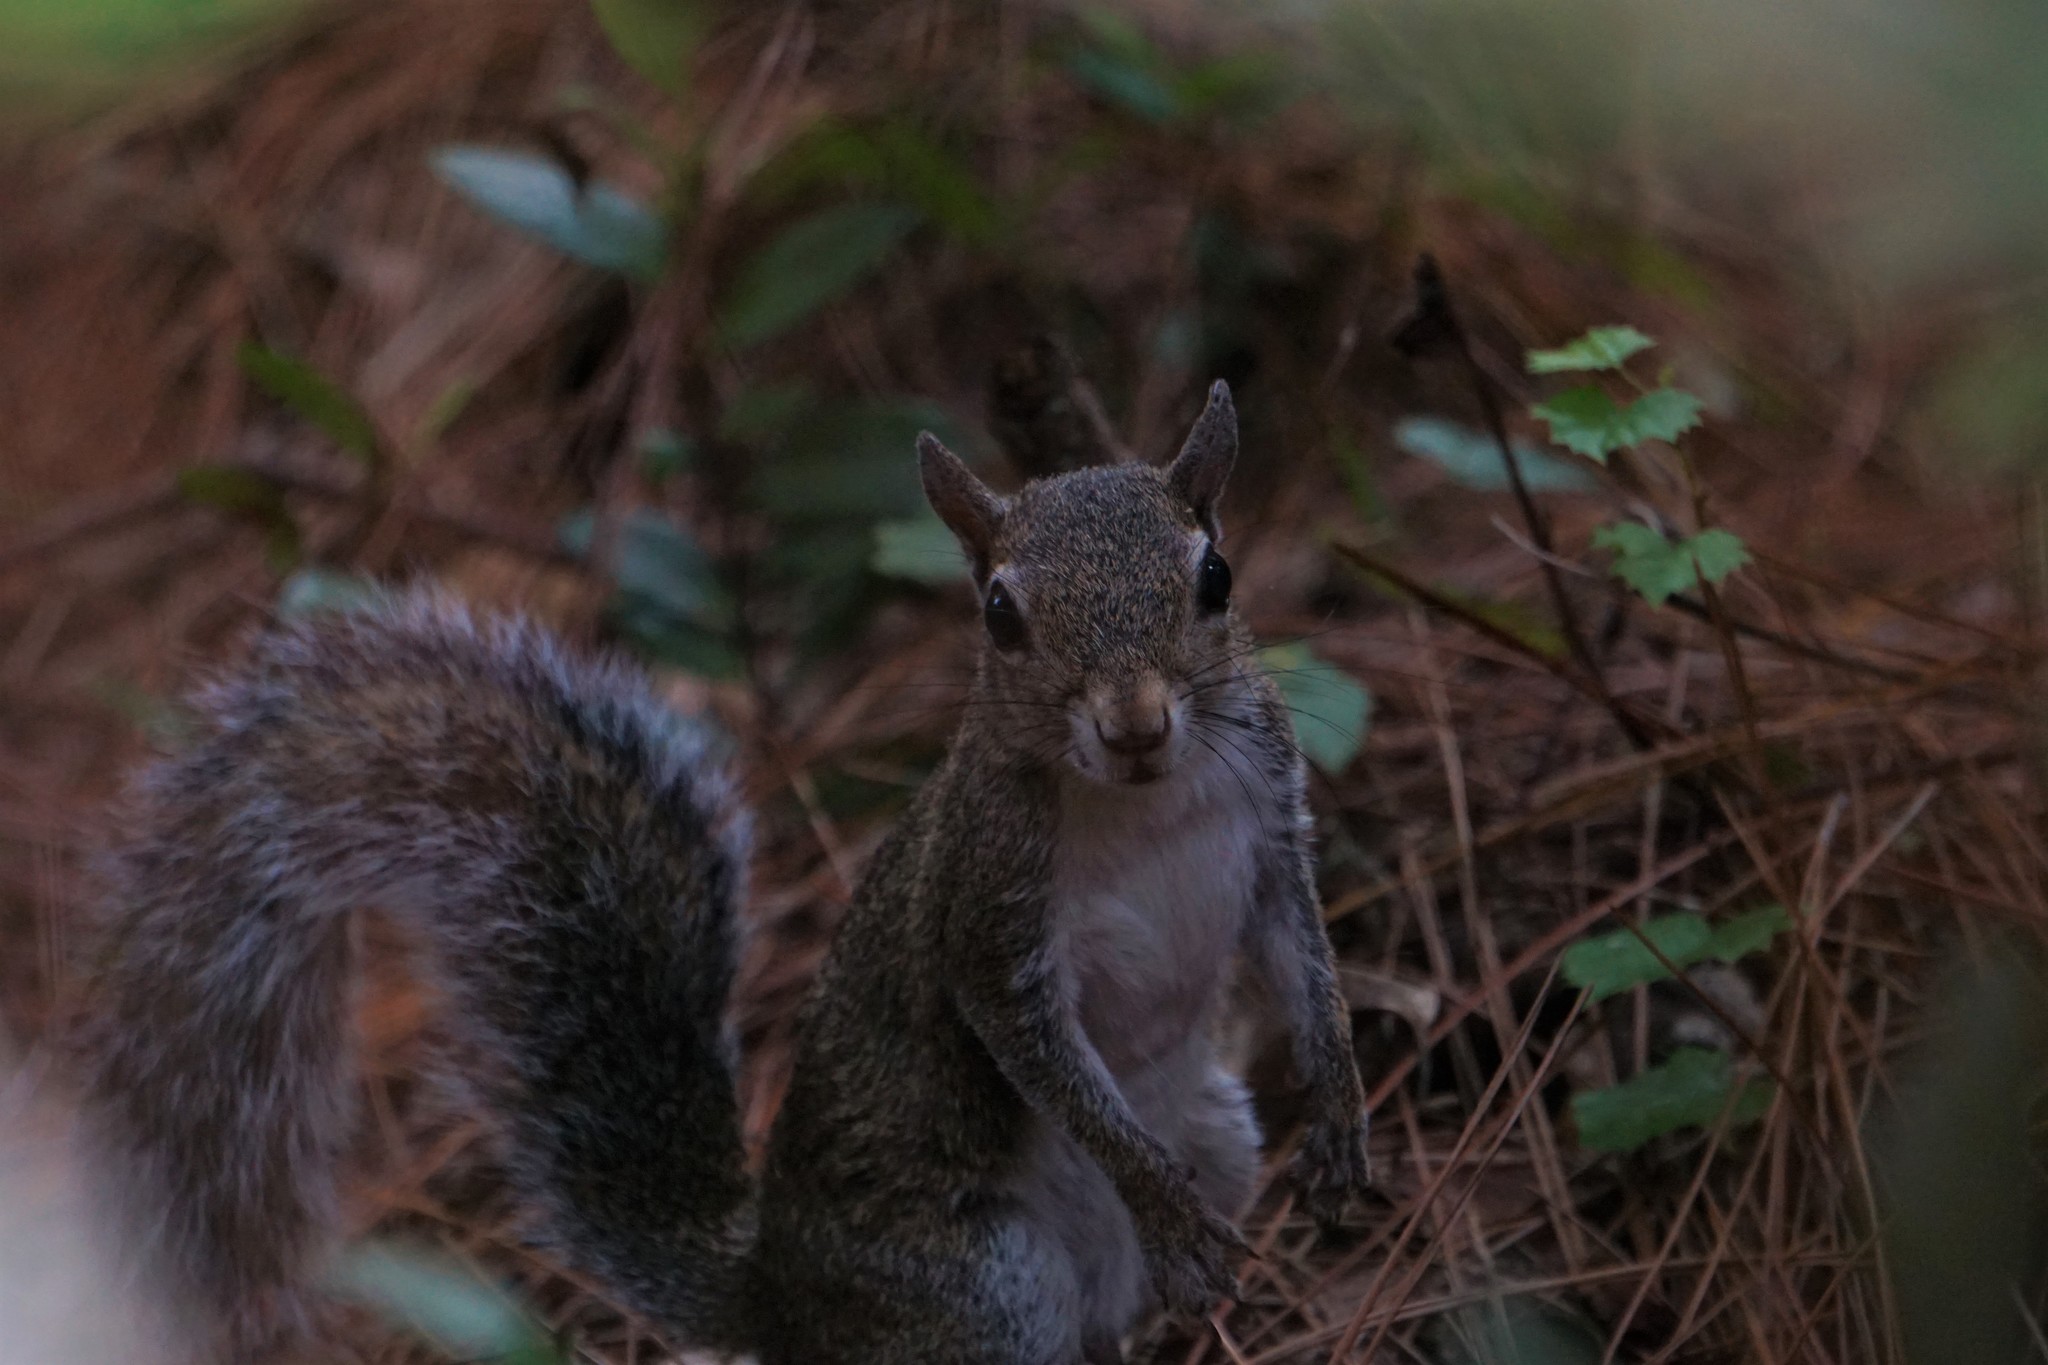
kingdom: Animalia
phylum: Chordata
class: Mammalia
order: Rodentia
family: Sciuridae
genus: Sciurus
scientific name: Sciurus carolinensis
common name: Eastern gray squirrel
